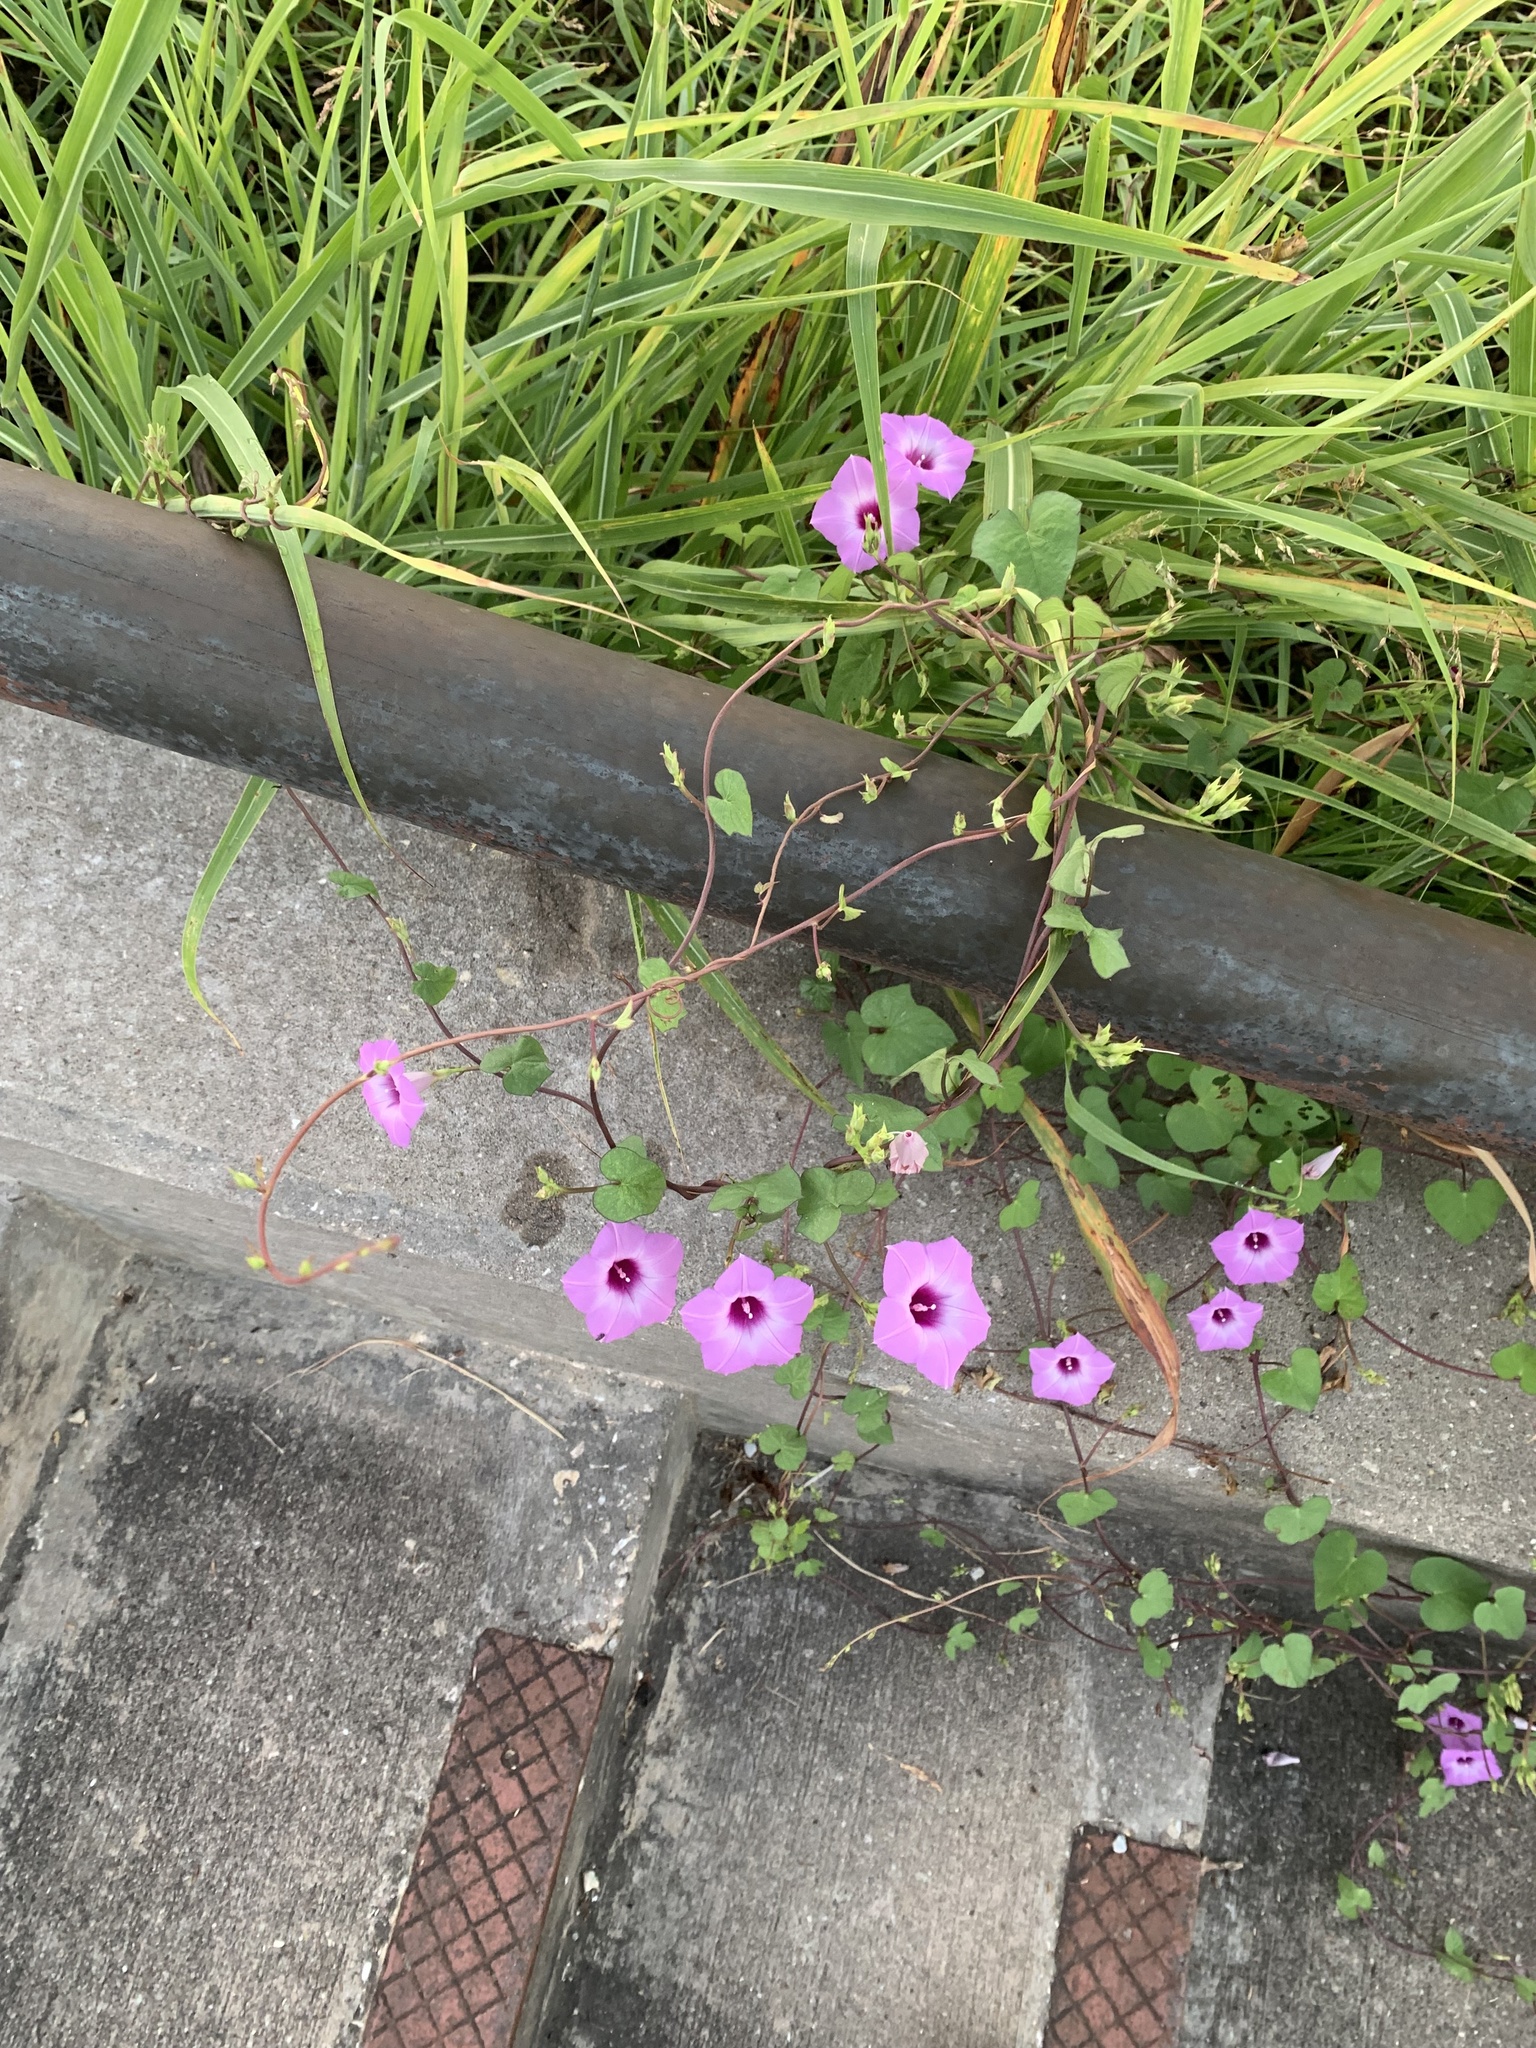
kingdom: Plantae
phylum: Tracheophyta
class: Magnoliopsida
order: Solanales
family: Convolvulaceae
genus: Ipomoea
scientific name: Ipomoea cordatotriloba
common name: Cotton morning glory
